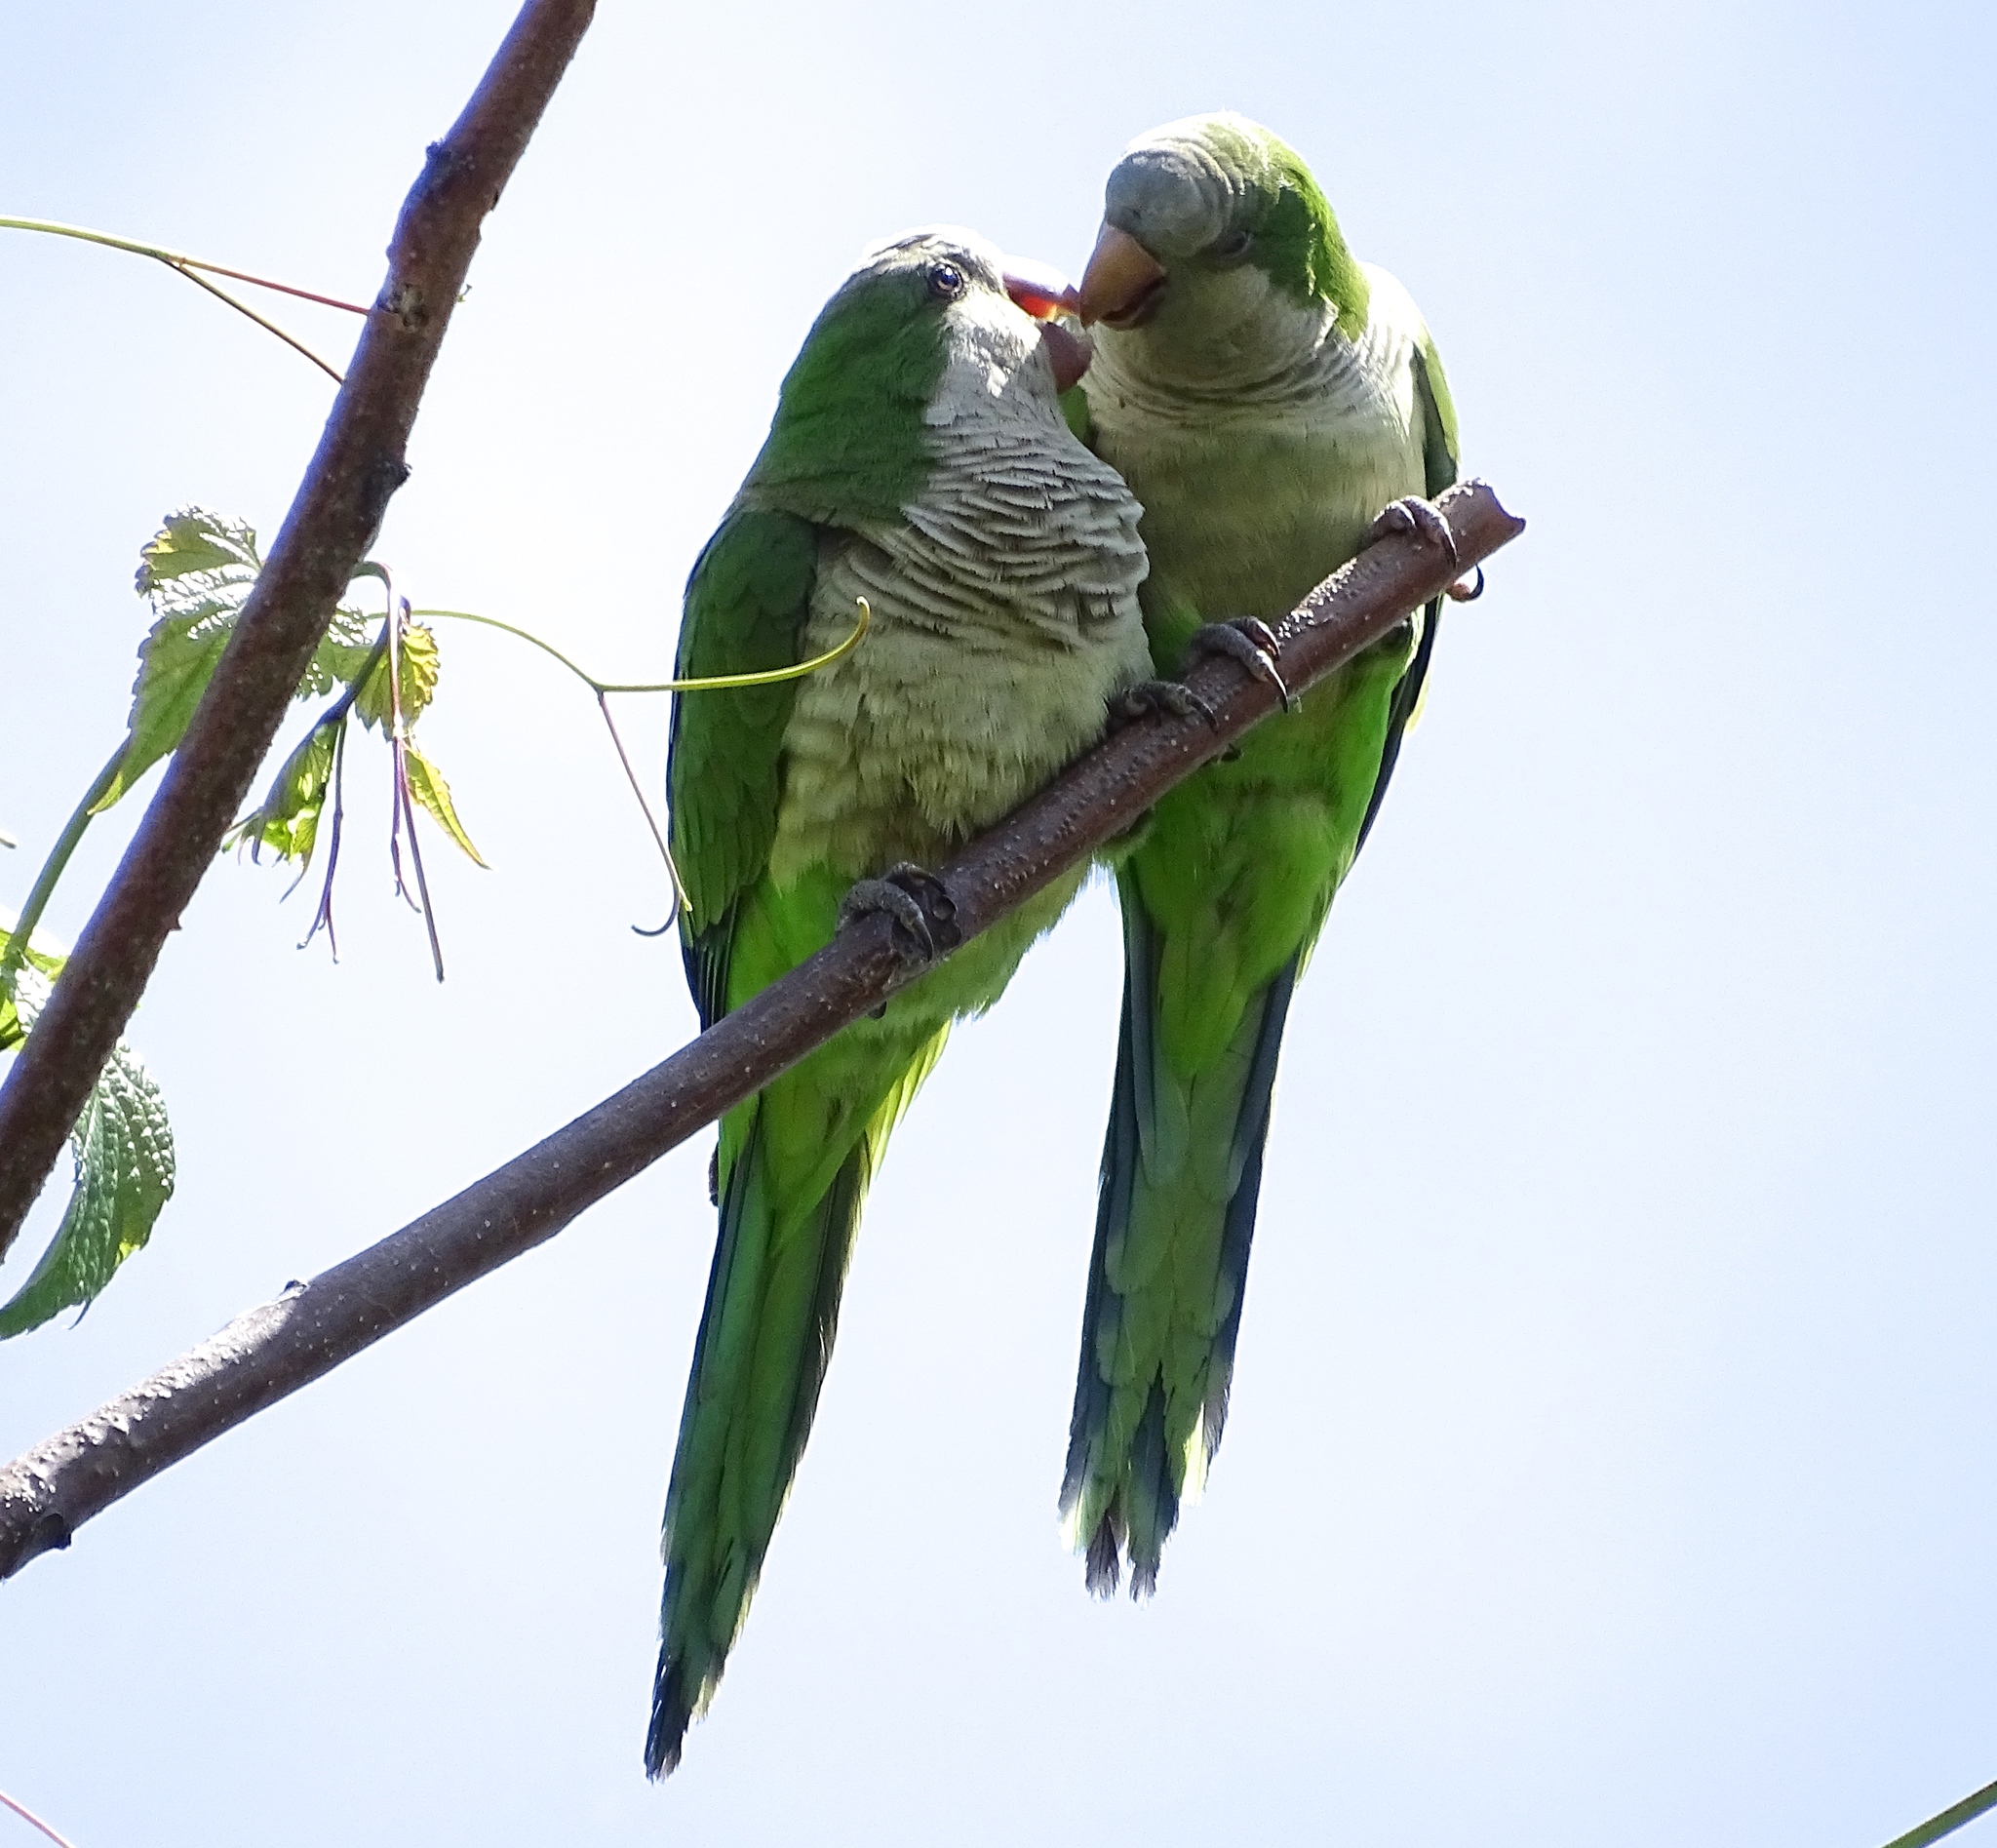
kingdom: Animalia
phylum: Chordata
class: Aves
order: Psittaciformes
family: Psittacidae
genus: Myiopsitta
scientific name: Myiopsitta monachus
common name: Monk parakeet
